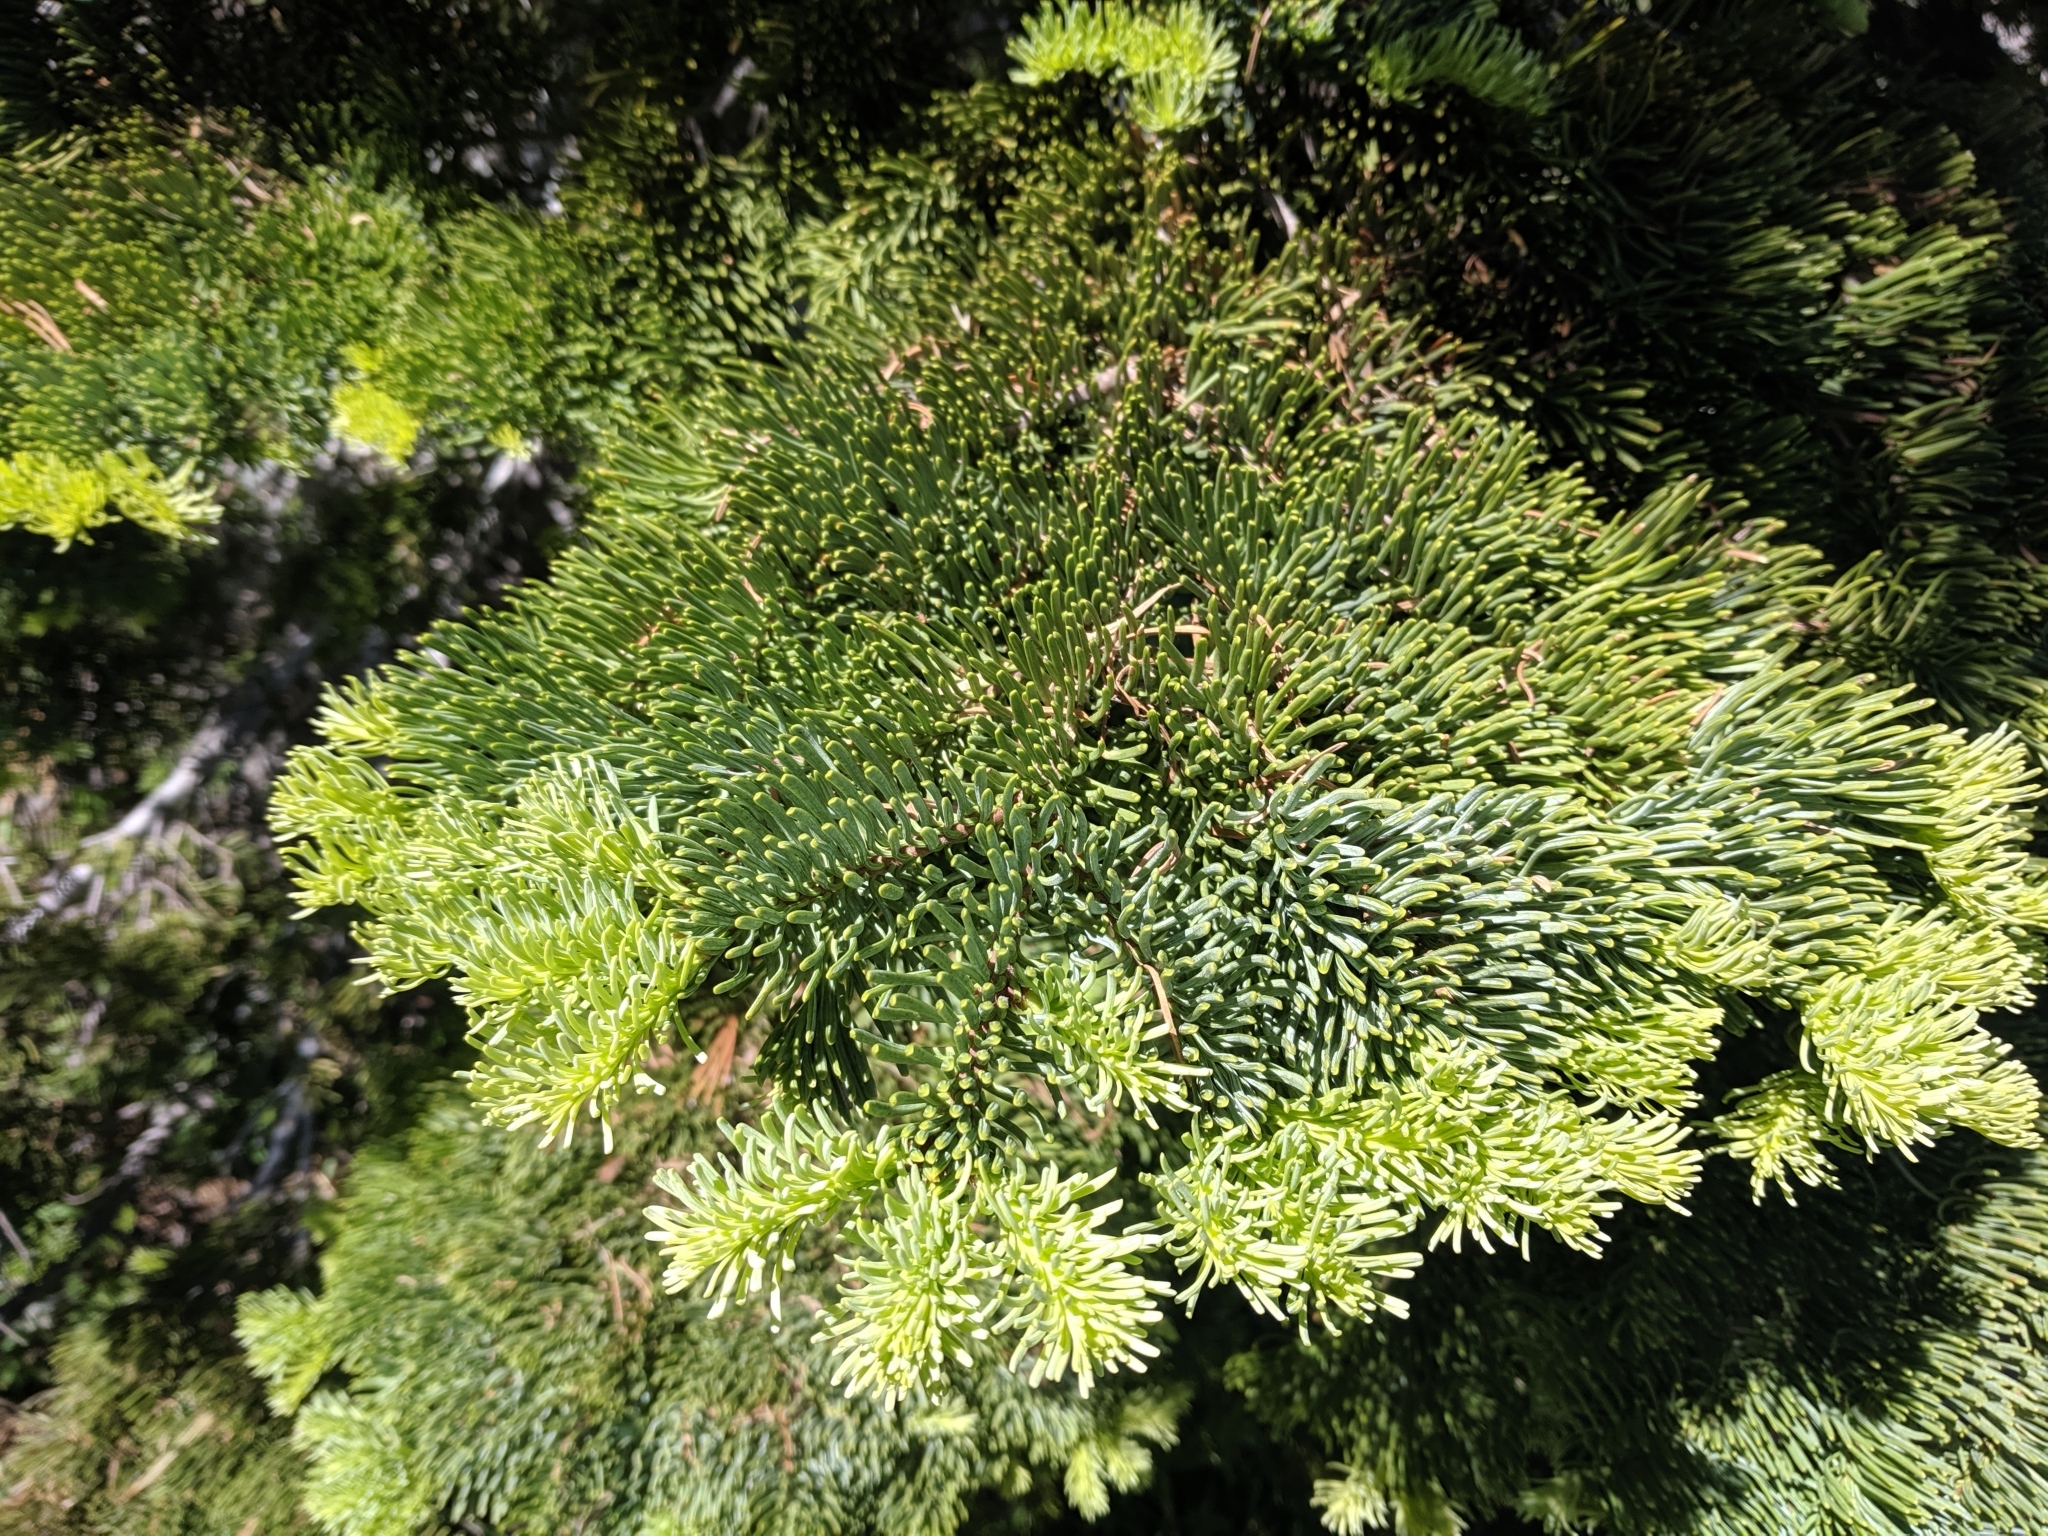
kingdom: Plantae
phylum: Tracheophyta
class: Pinopsida
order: Pinales
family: Pinaceae
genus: Abies
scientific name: Abies magnifica bis
